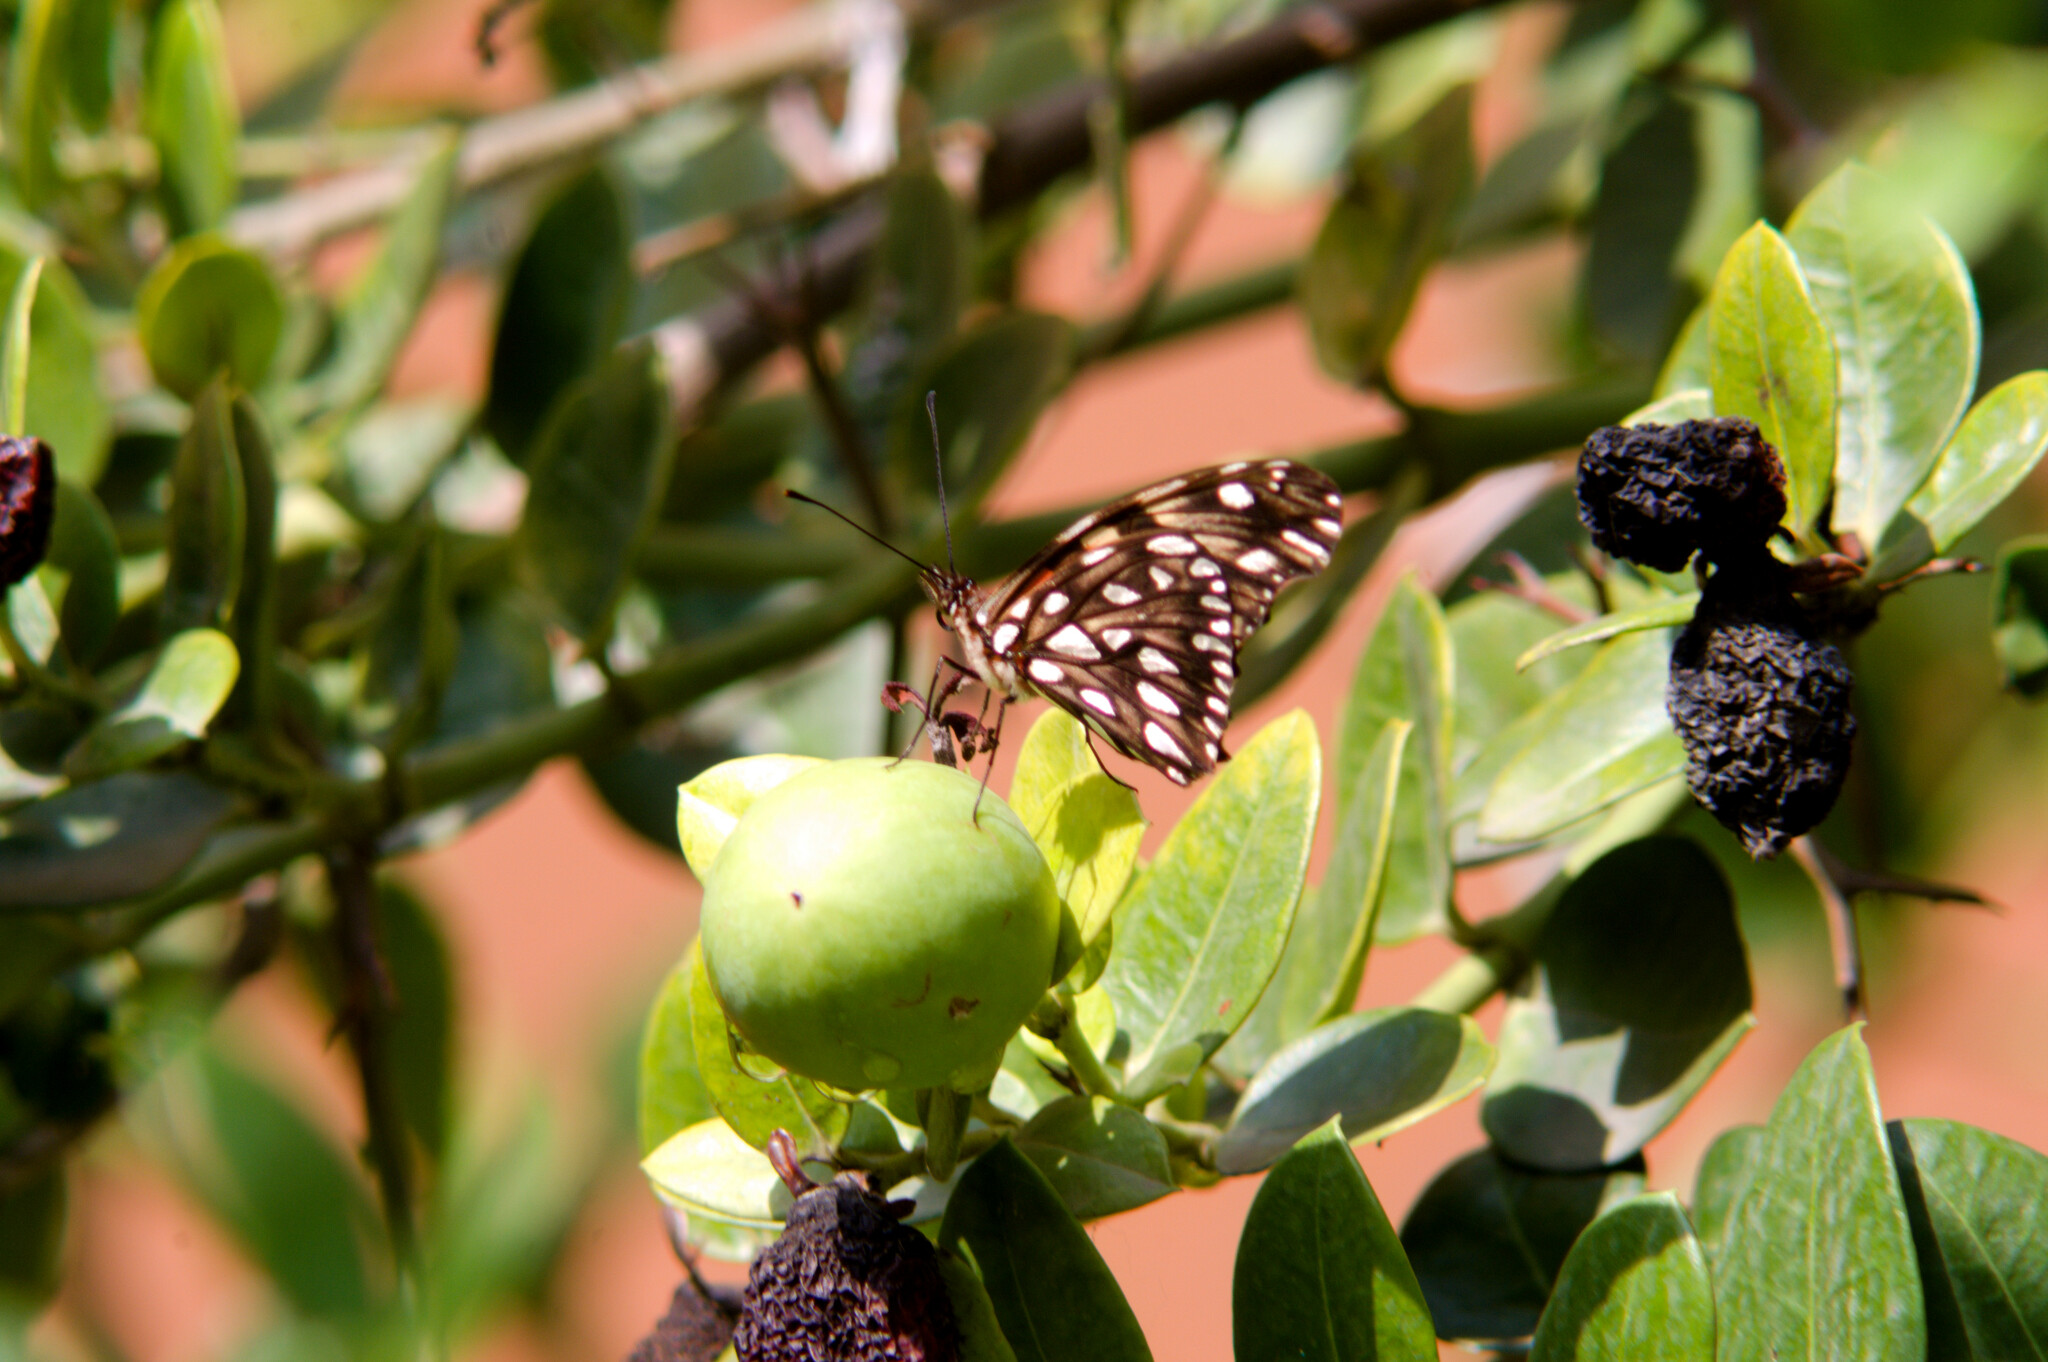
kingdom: Animalia
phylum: Arthropoda
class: Insecta
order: Lepidoptera
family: Nymphalidae
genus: Dione
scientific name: Dione juno
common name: Juno silverspot
